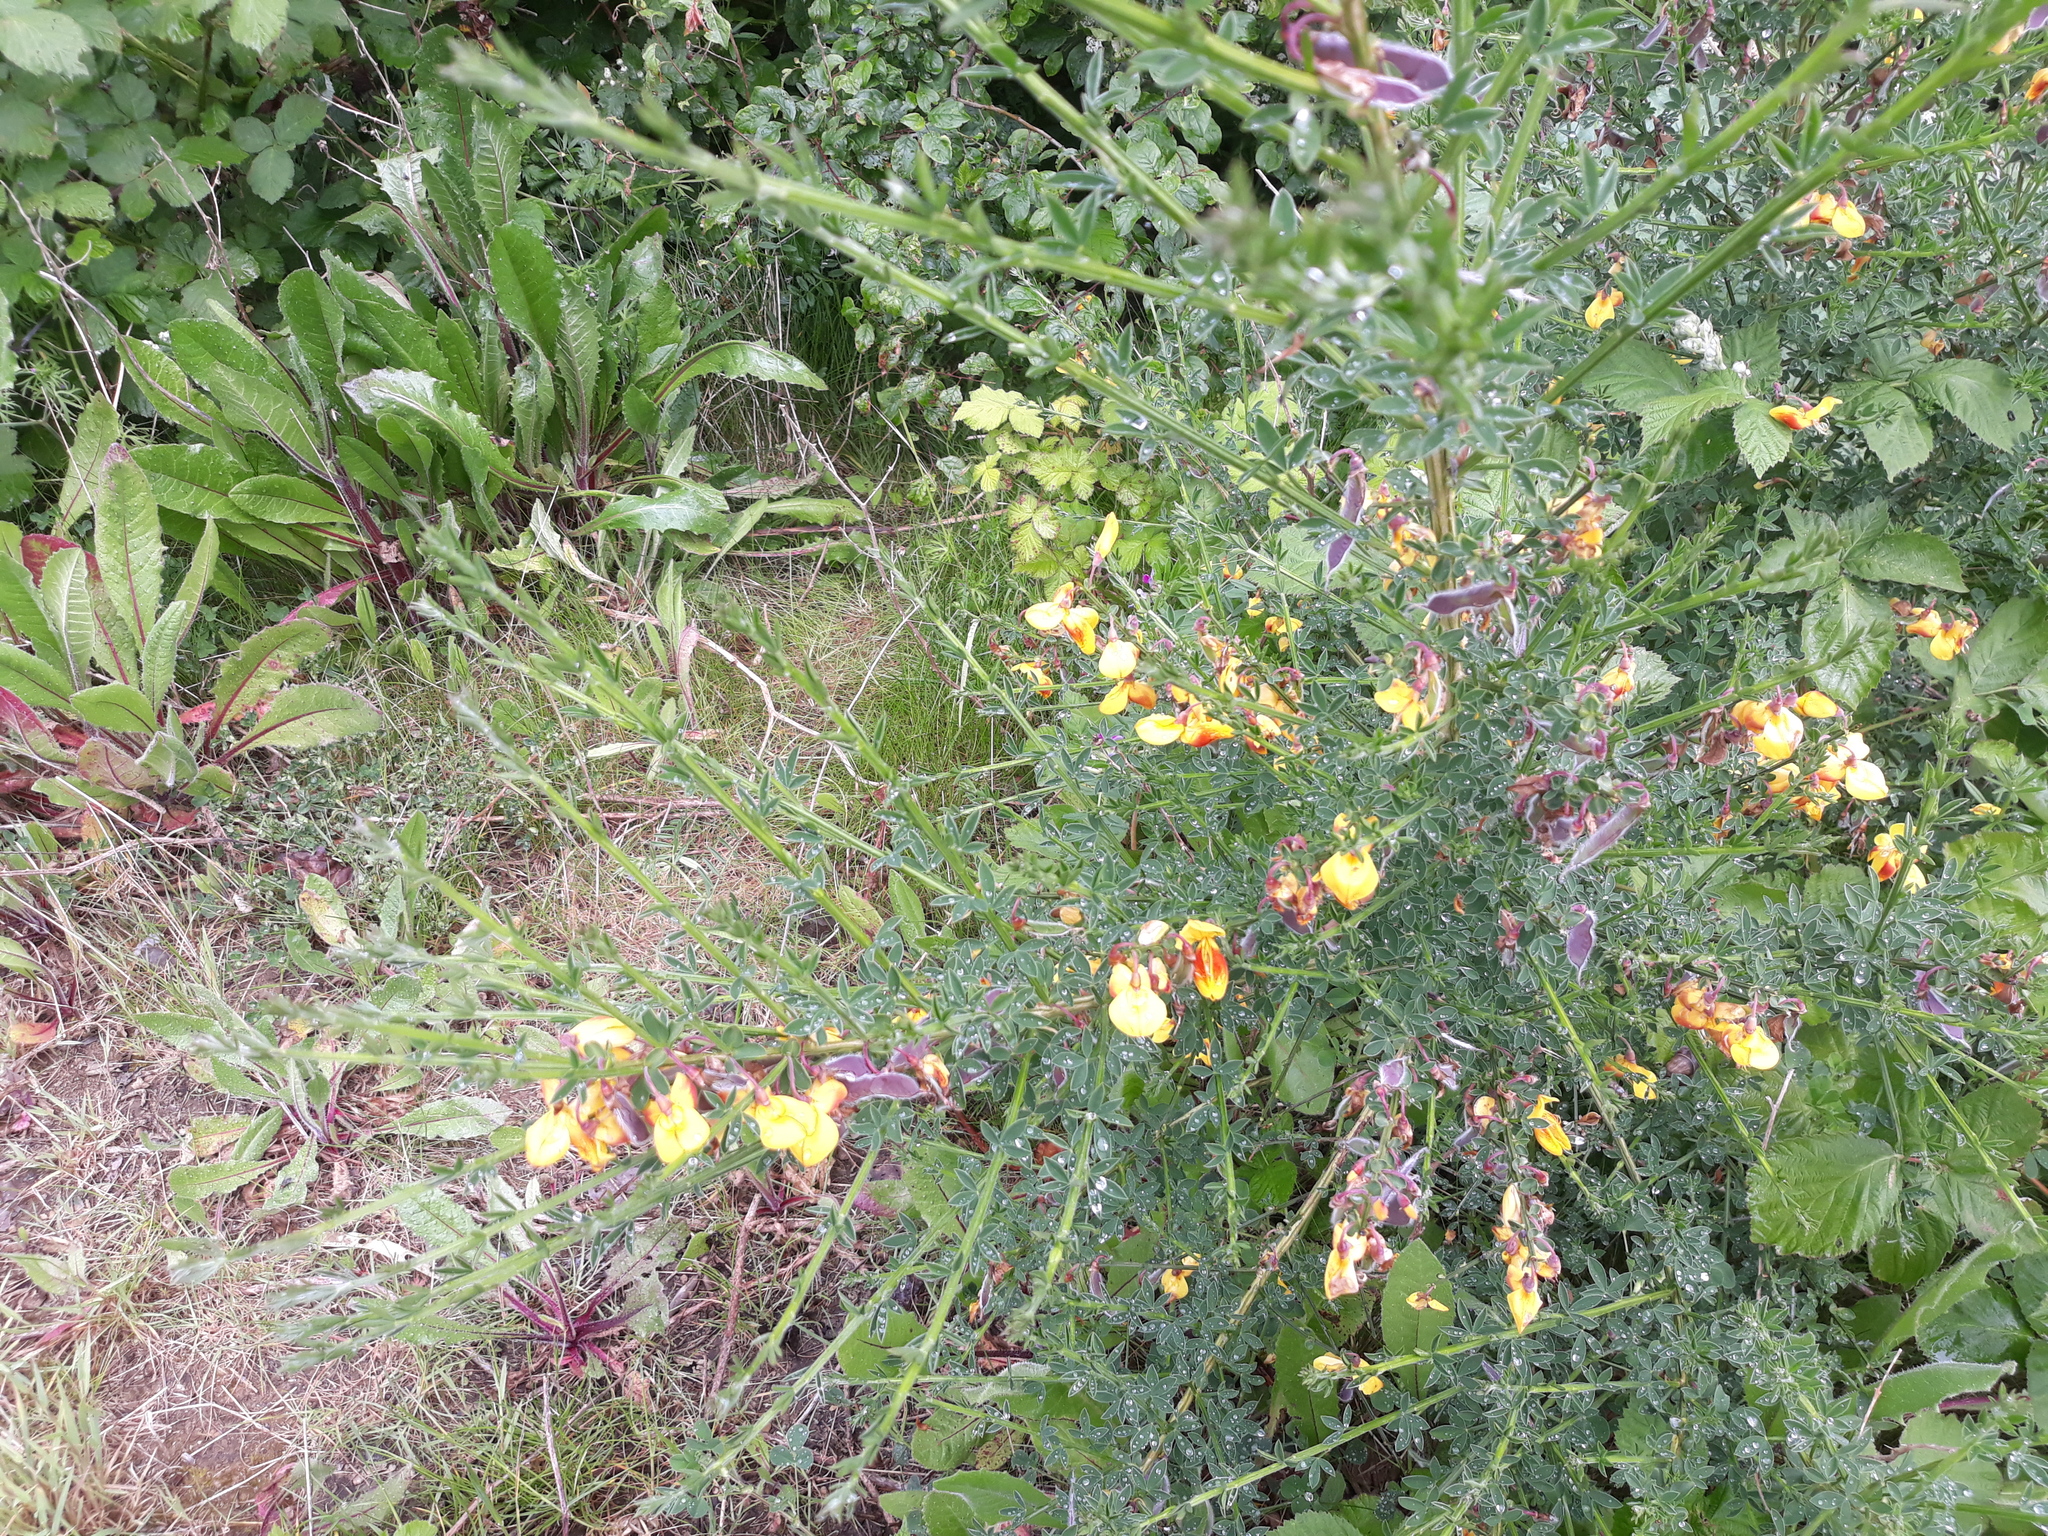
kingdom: Plantae
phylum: Tracheophyta
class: Magnoliopsida
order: Fabales
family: Fabaceae
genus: Cytisus
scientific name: Cytisus scoparius
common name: Scotch broom
